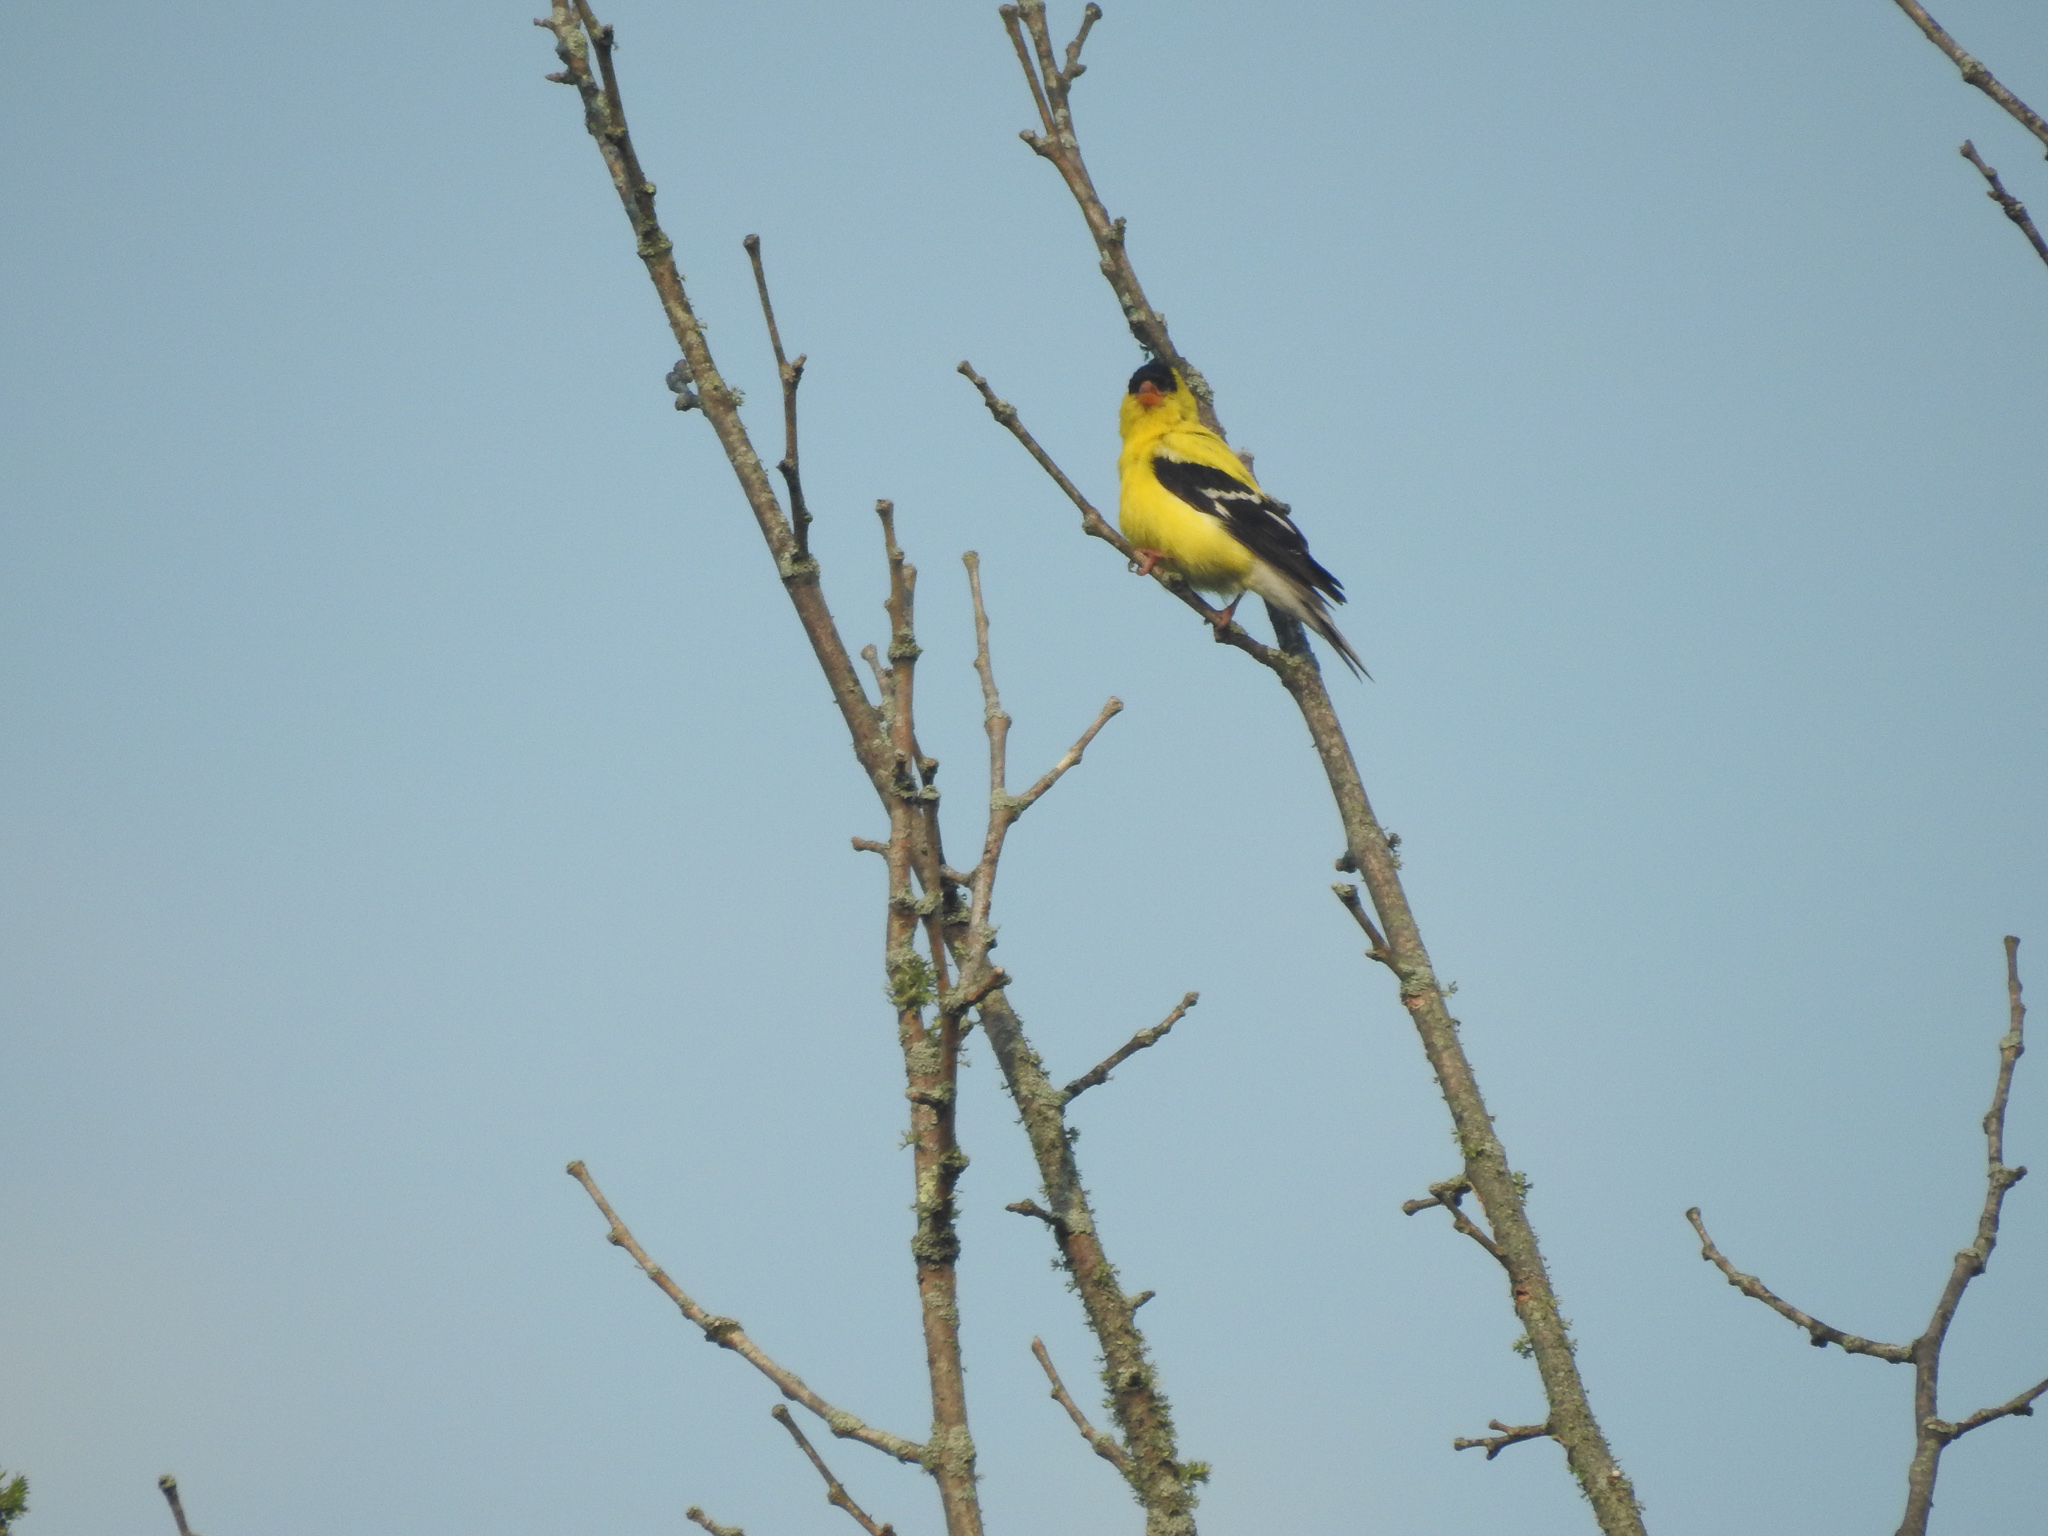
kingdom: Animalia
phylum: Chordata
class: Aves
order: Passeriformes
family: Fringillidae
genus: Spinus
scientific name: Spinus tristis
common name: American goldfinch
